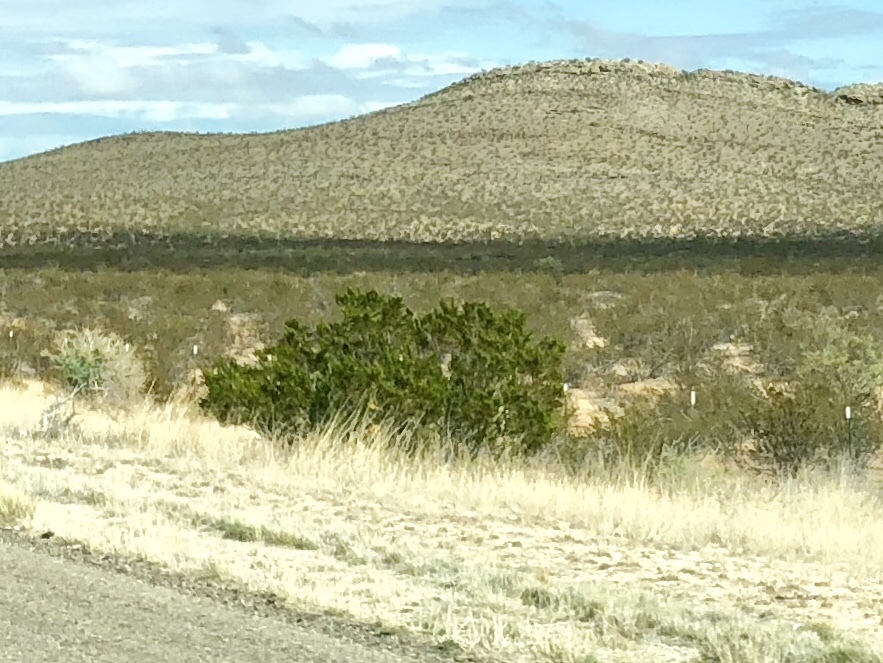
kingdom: Plantae
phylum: Tracheophyta
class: Magnoliopsida
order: Zygophyllales
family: Zygophyllaceae
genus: Larrea
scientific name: Larrea tridentata
